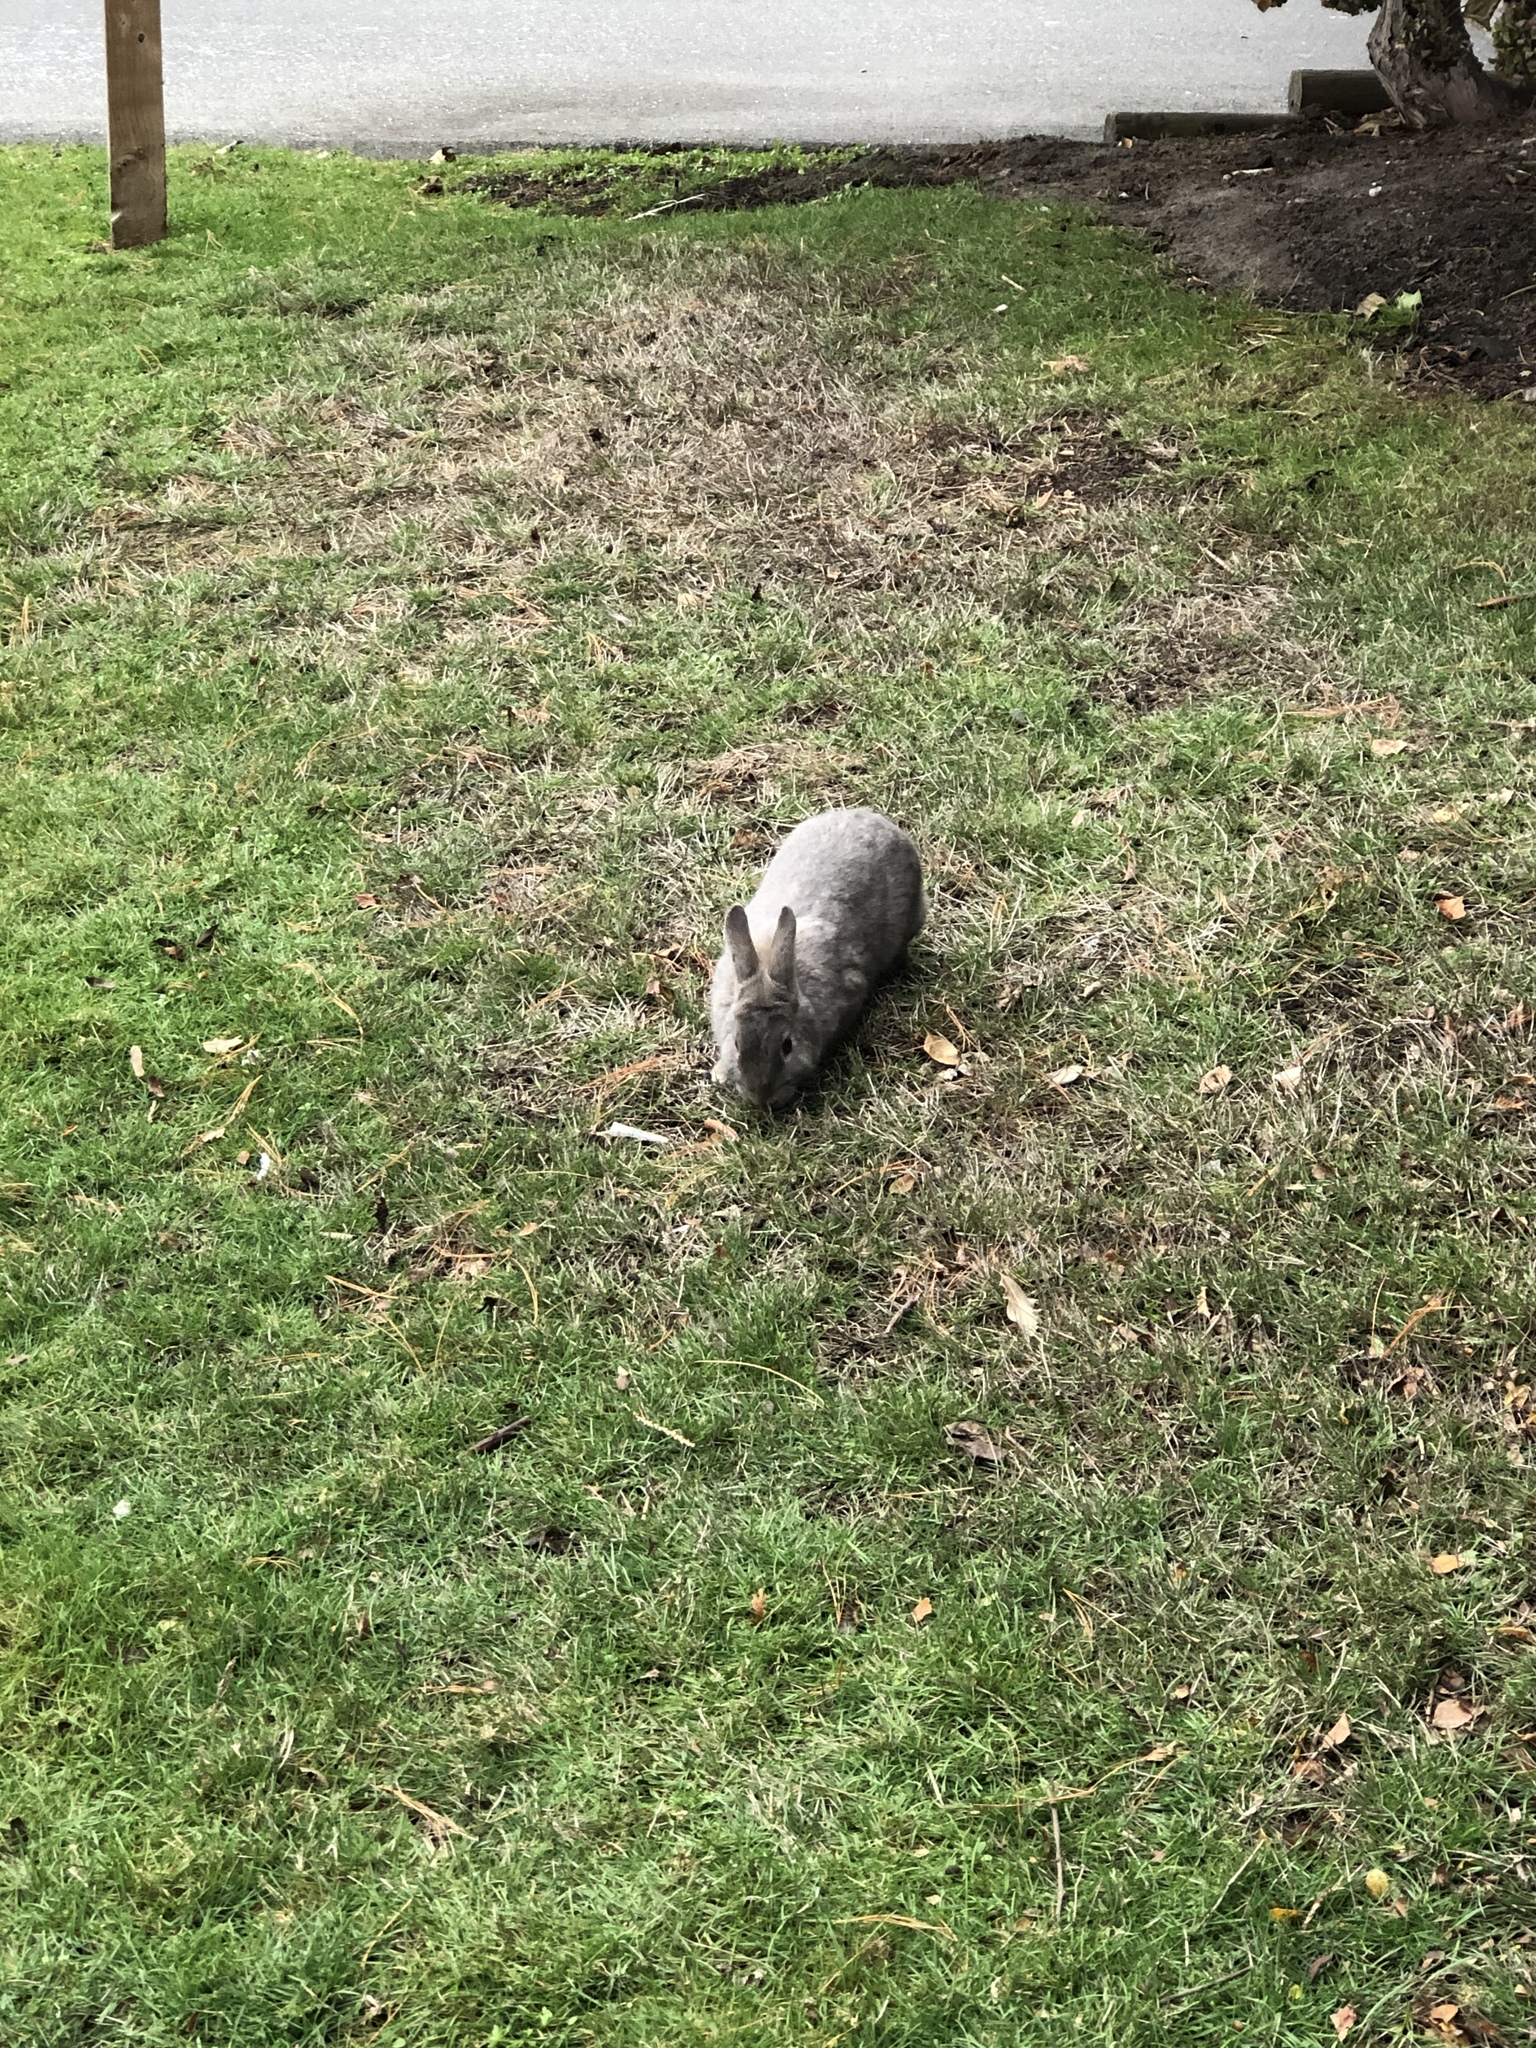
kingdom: Animalia
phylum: Chordata
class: Mammalia
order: Lagomorpha
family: Leporidae
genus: Oryctolagus
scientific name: Oryctolagus cuniculus
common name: European rabbit
